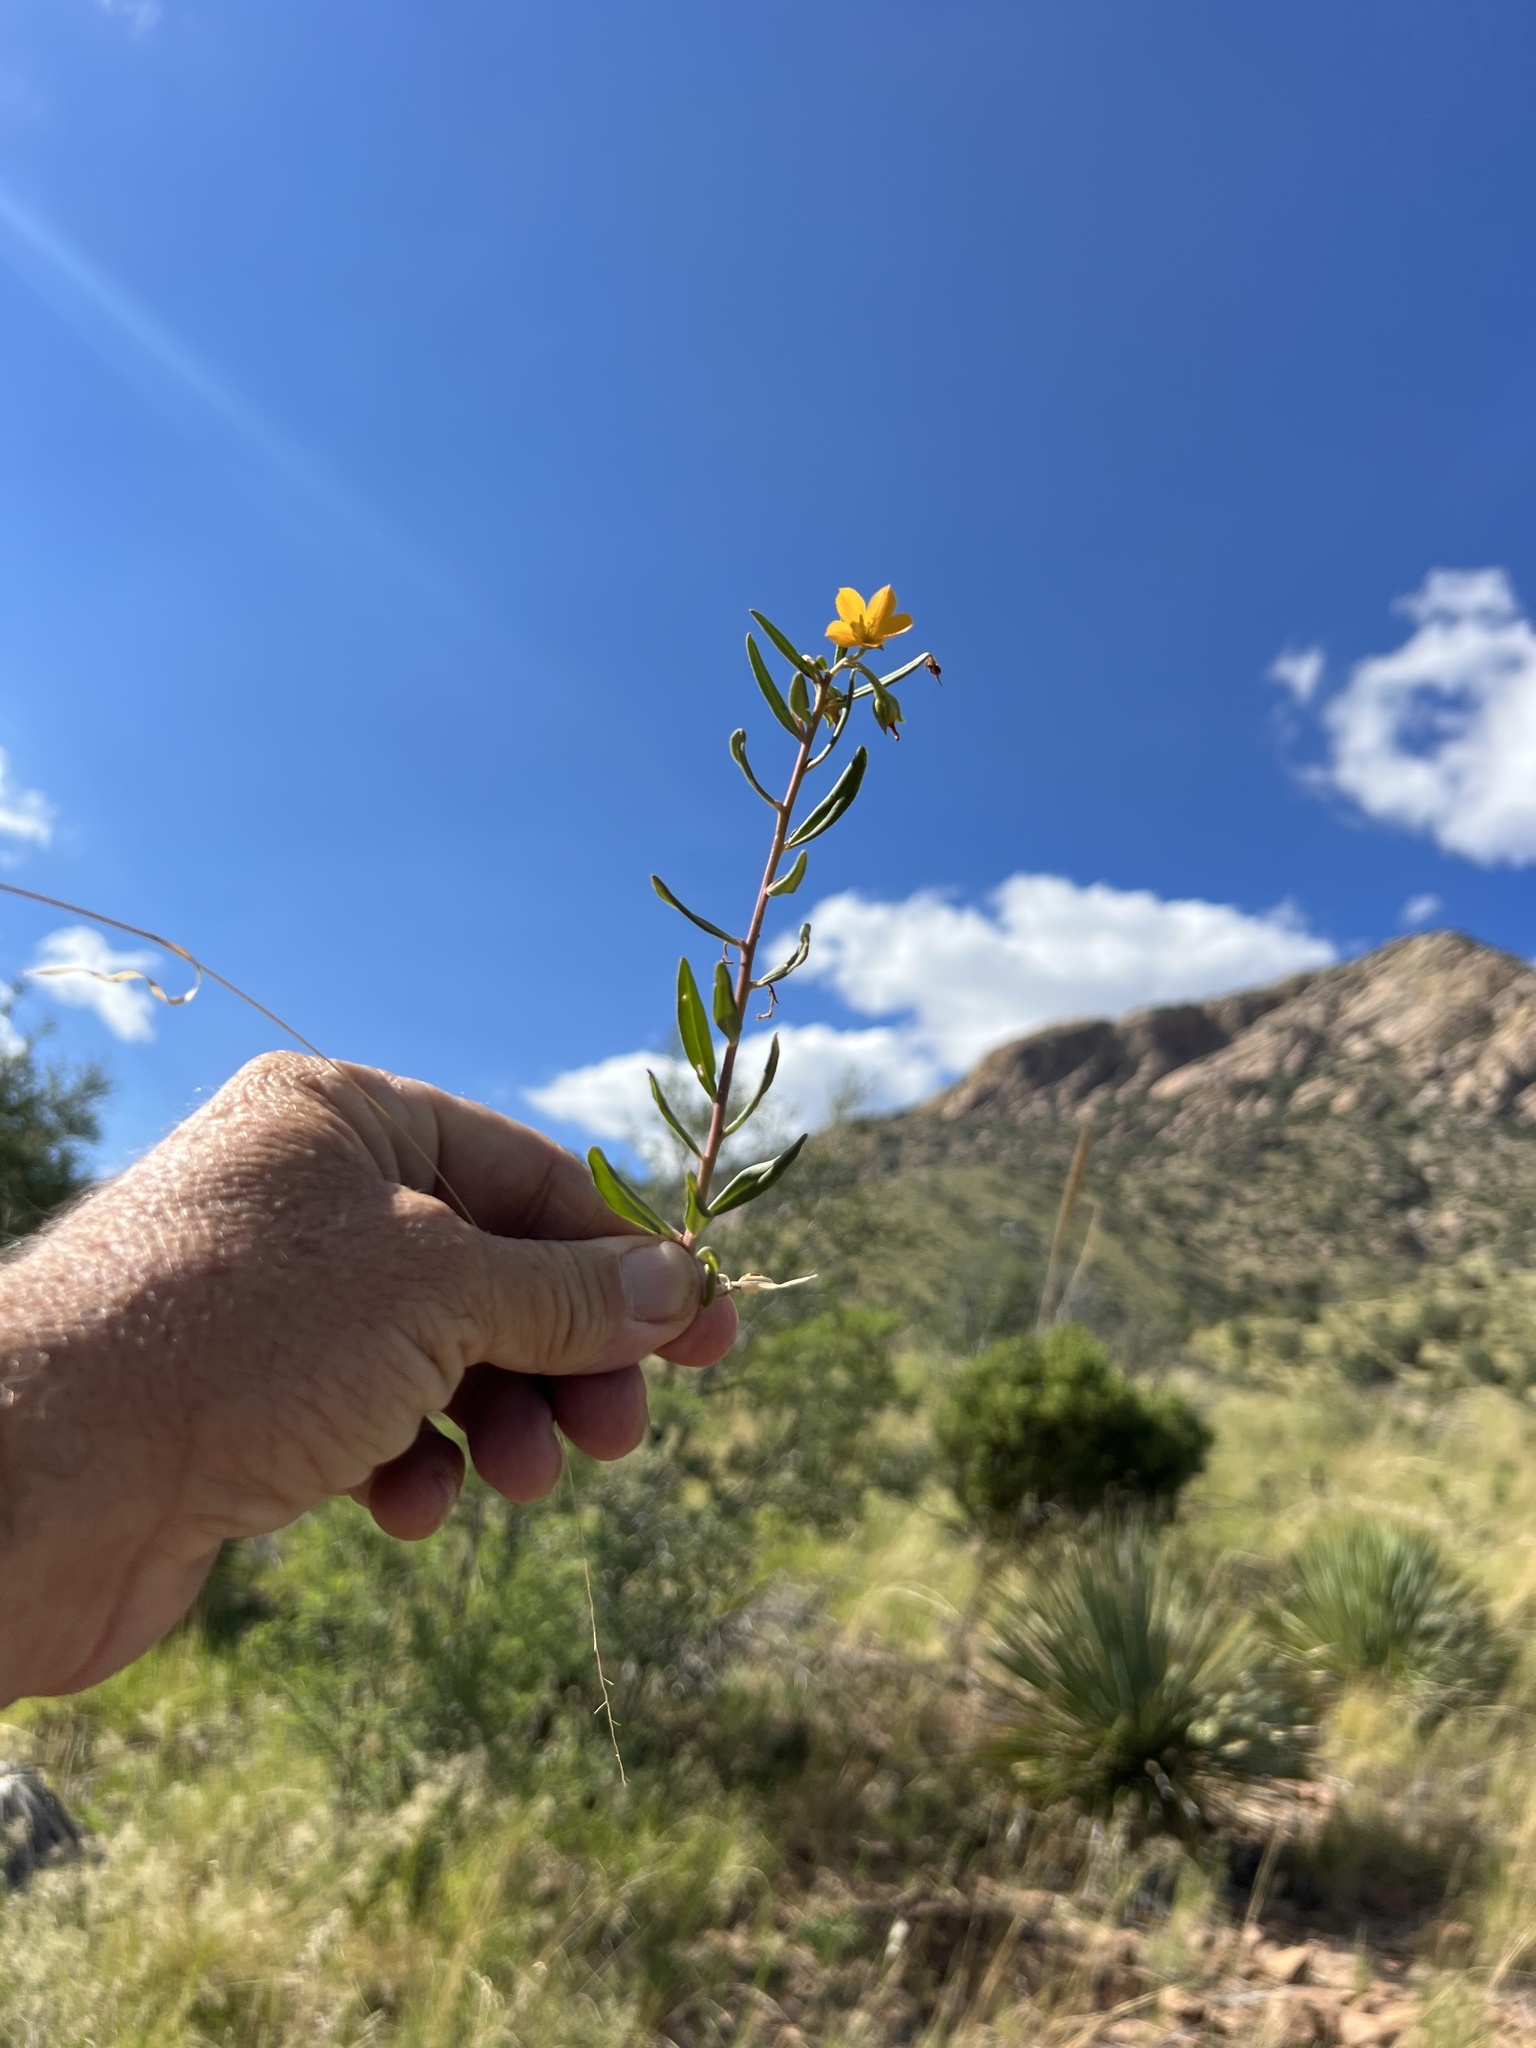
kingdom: Plantae
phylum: Tracheophyta
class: Magnoliopsida
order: Caryophyllales
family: Montiaceae
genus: Phemeranthus
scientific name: Phemeranthus aurantiacus
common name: Orange fameflower
